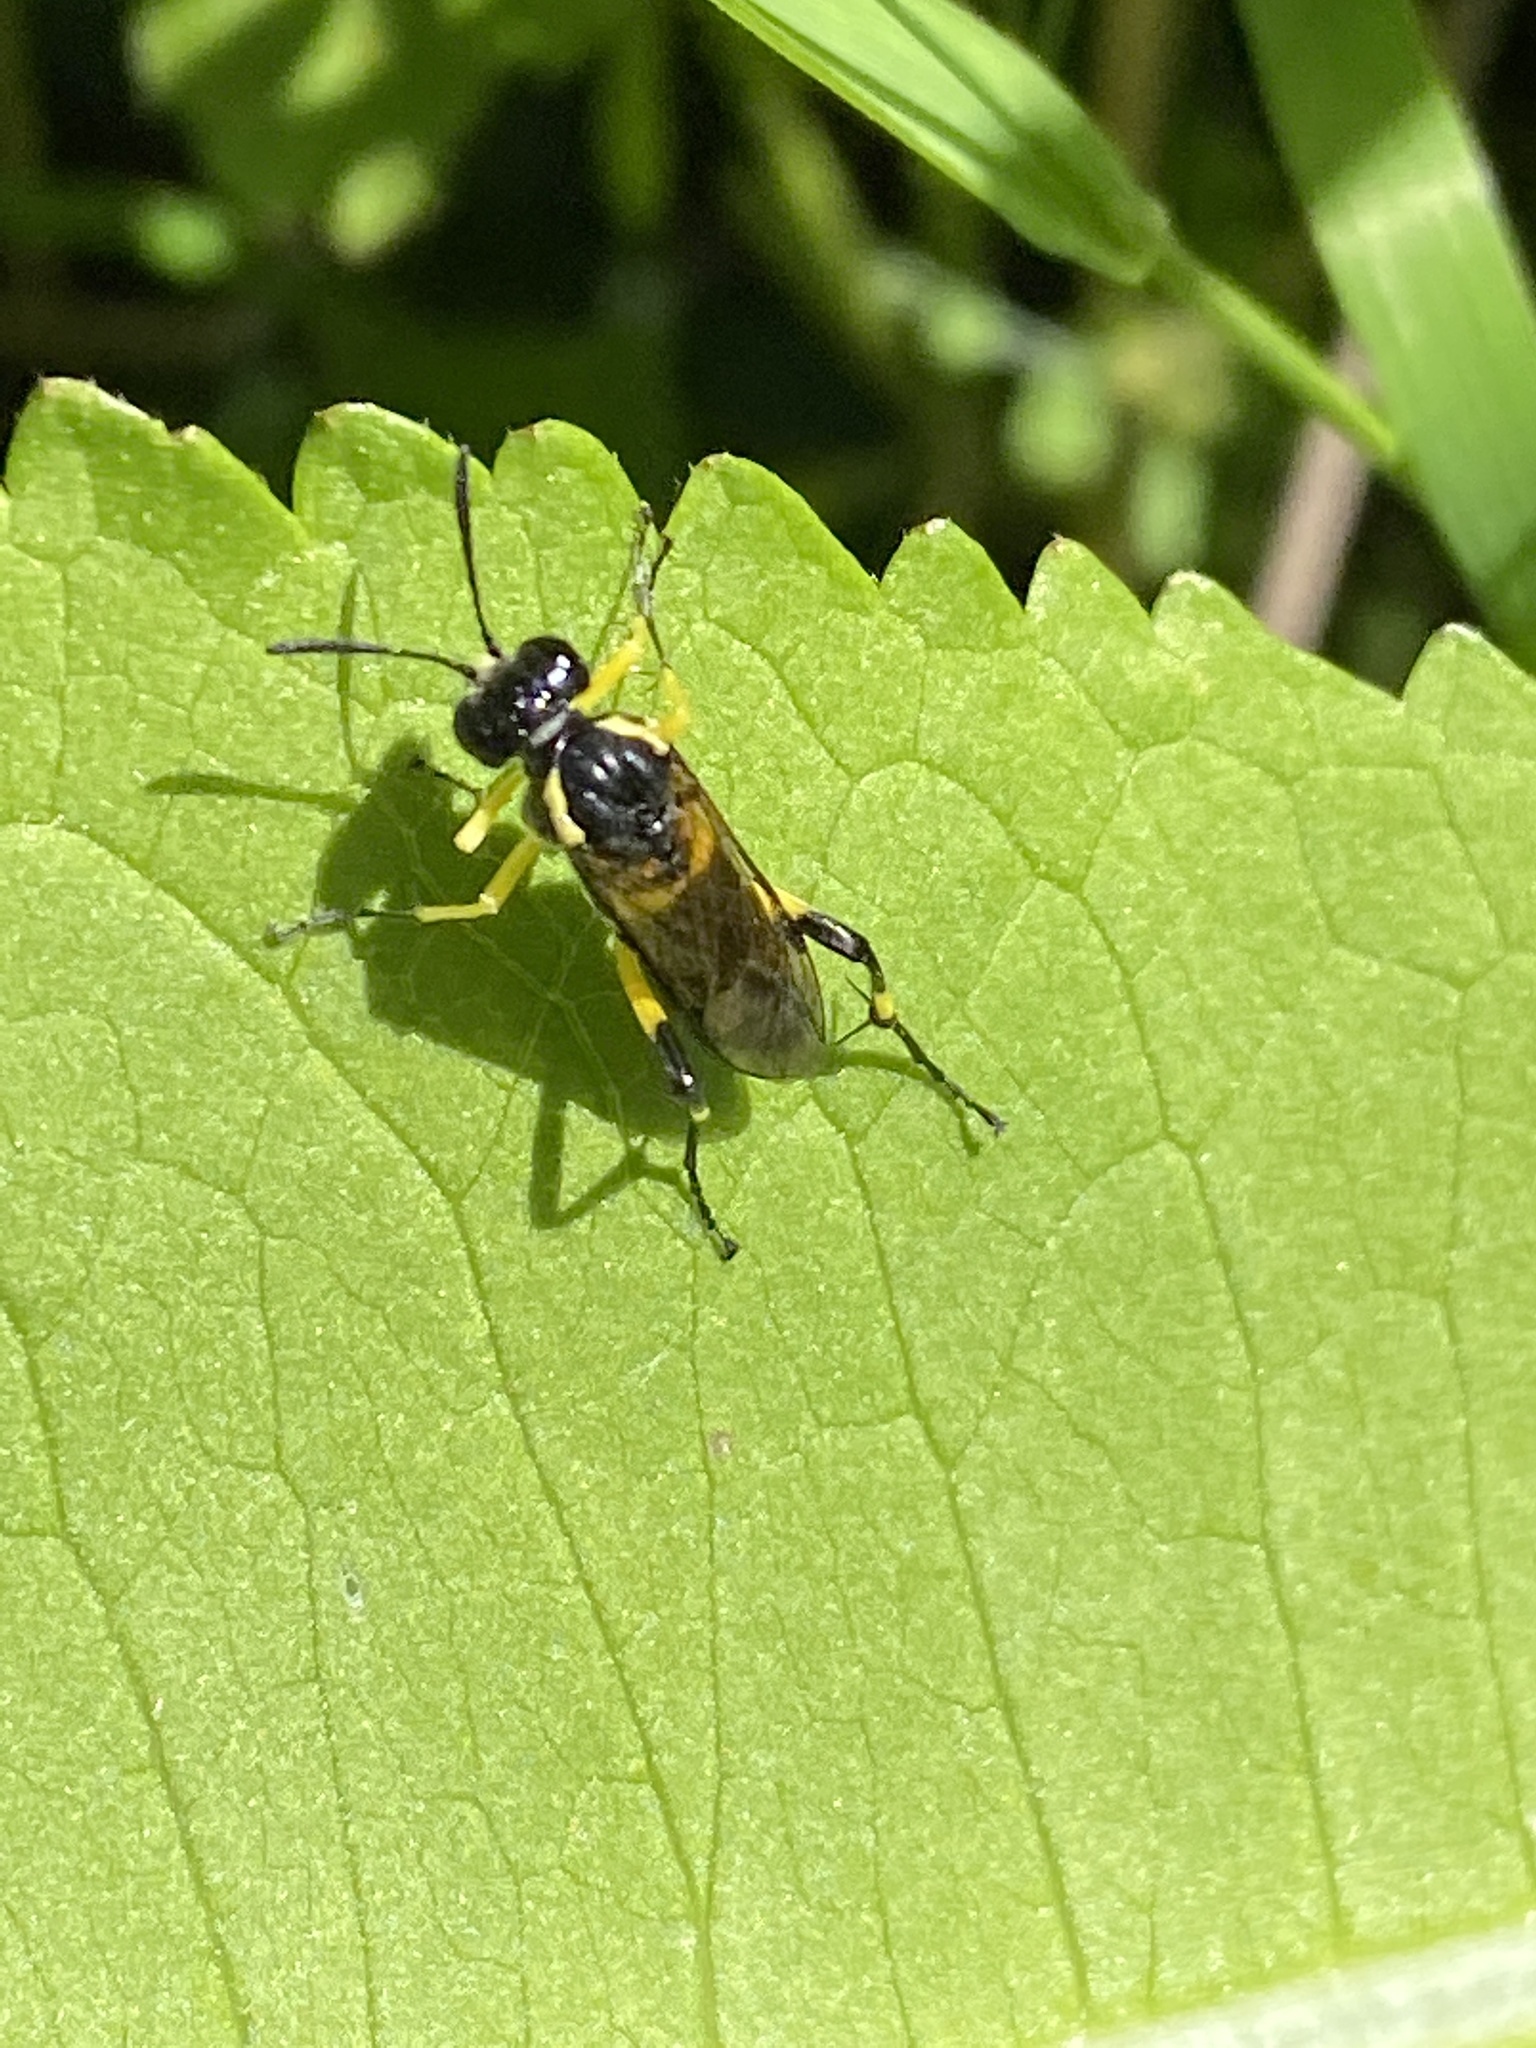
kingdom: Animalia
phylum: Arthropoda
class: Insecta
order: Hymenoptera
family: Tenthredinidae
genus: Macrophya
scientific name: Macrophya montana
